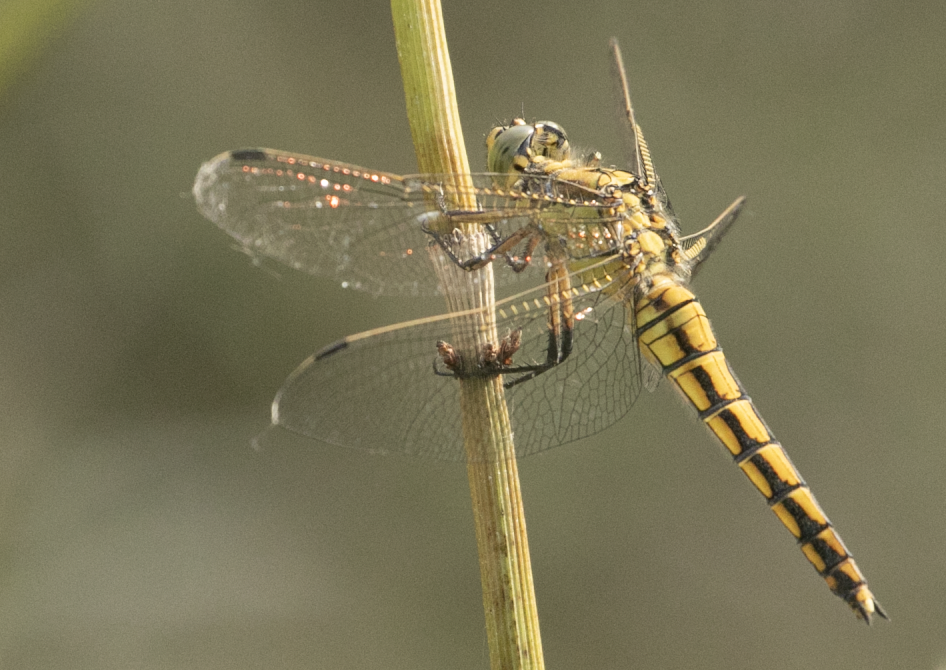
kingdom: Animalia
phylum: Arthropoda
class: Insecta
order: Odonata
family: Libellulidae
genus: Orthetrum
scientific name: Orthetrum cancellatum
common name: Black-tailed skimmer
